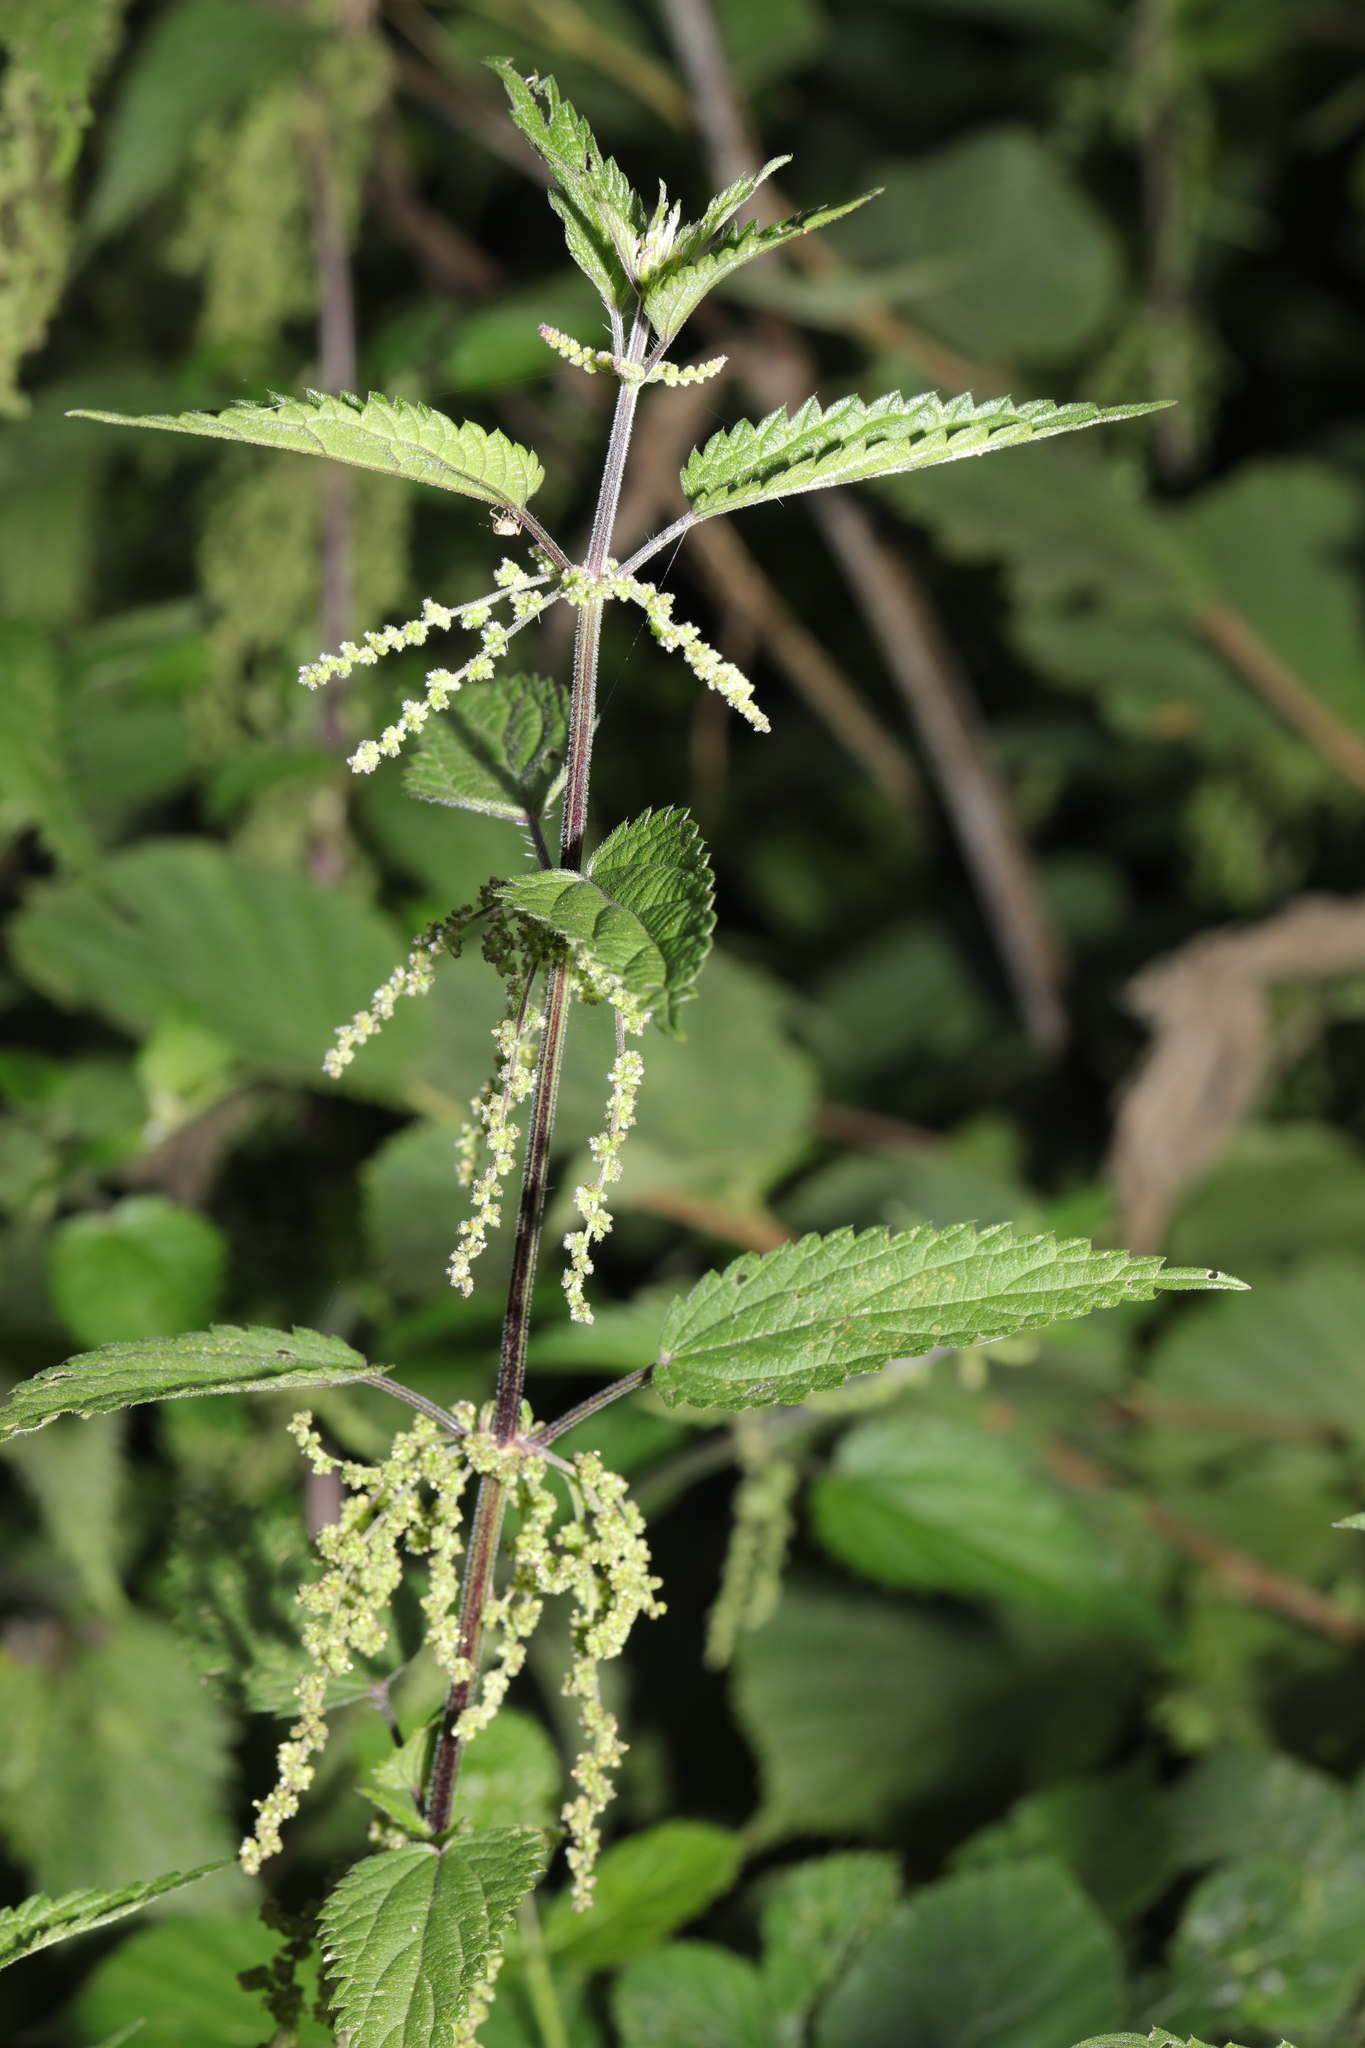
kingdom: Plantae
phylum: Tracheophyta
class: Magnoliopsida
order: Rosales
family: Urticaceae
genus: Urtica
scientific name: Urtica dioica
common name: Common nettle
